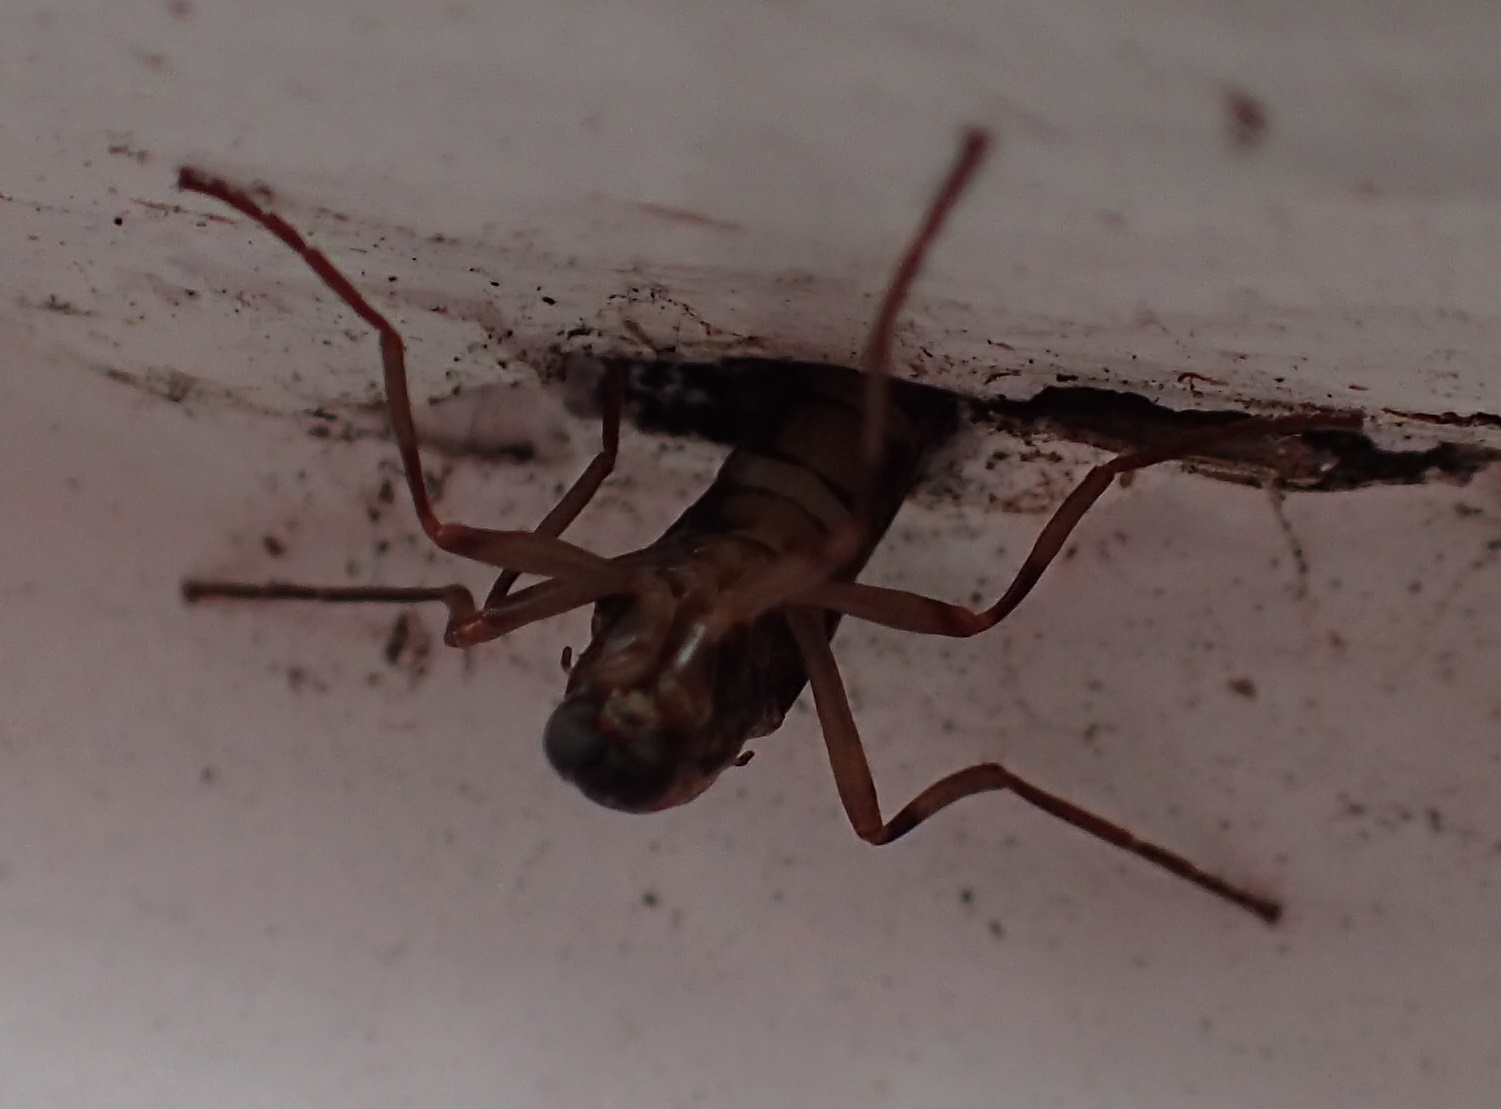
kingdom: Animalia
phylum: Arthropoda
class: Insecta
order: Diptera
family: Stratiomyidae
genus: Boreoides
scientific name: Boreoides tasmaniensis
